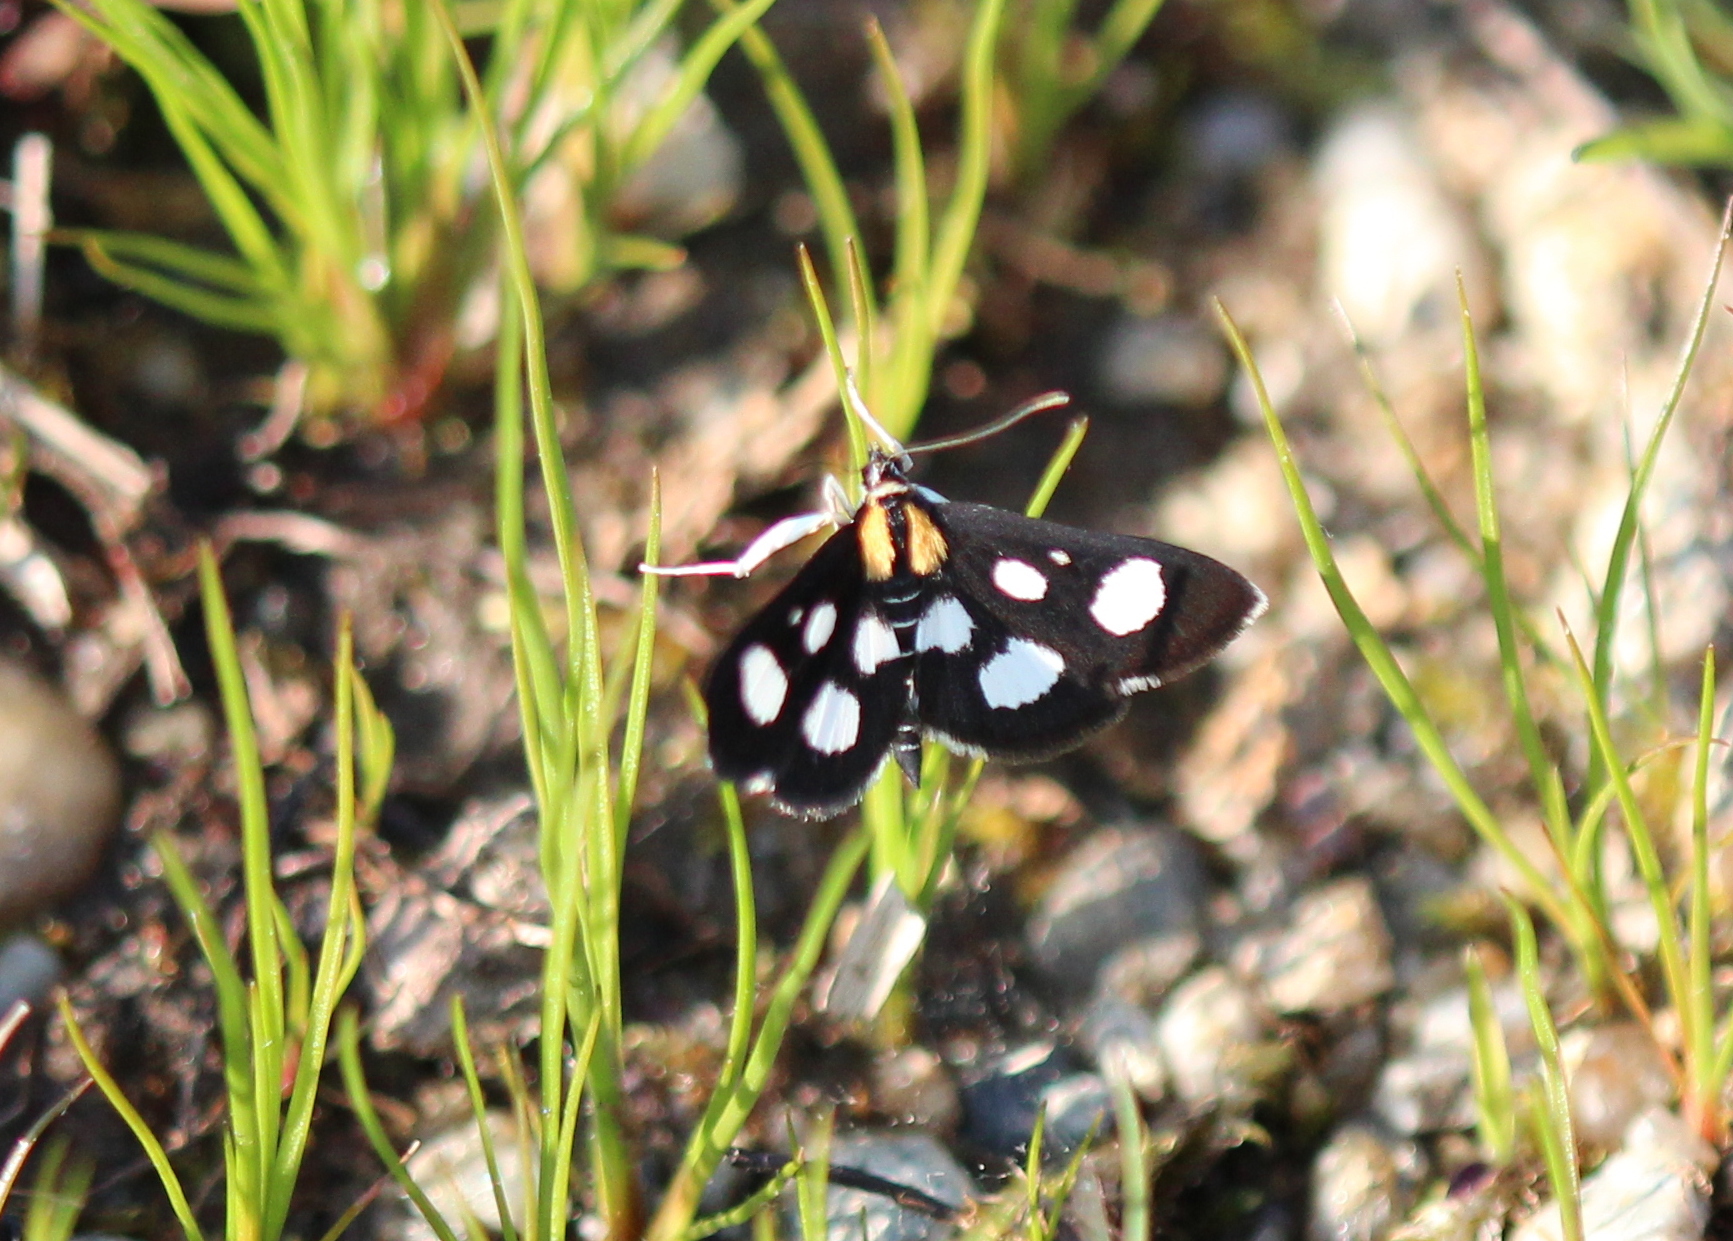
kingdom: Animalia
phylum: Arthropoda
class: Insecta
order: Lepidoptera
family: Crambidae
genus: Anania
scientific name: Anania funebris
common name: White-spotted sable moth
